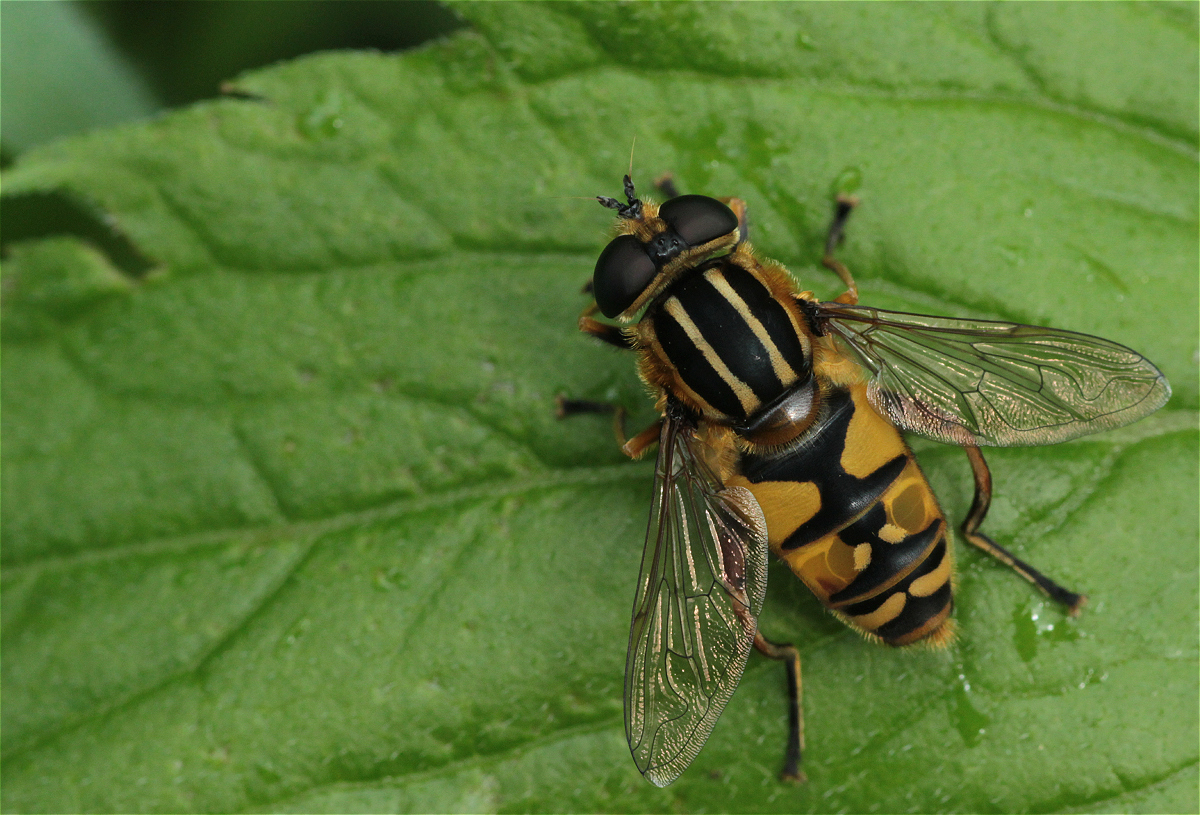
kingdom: Animalia
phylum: Arthropoda
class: Insecta
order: Diptera
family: Syrphidae
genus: Helophilus
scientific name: Helophilus pendulus
